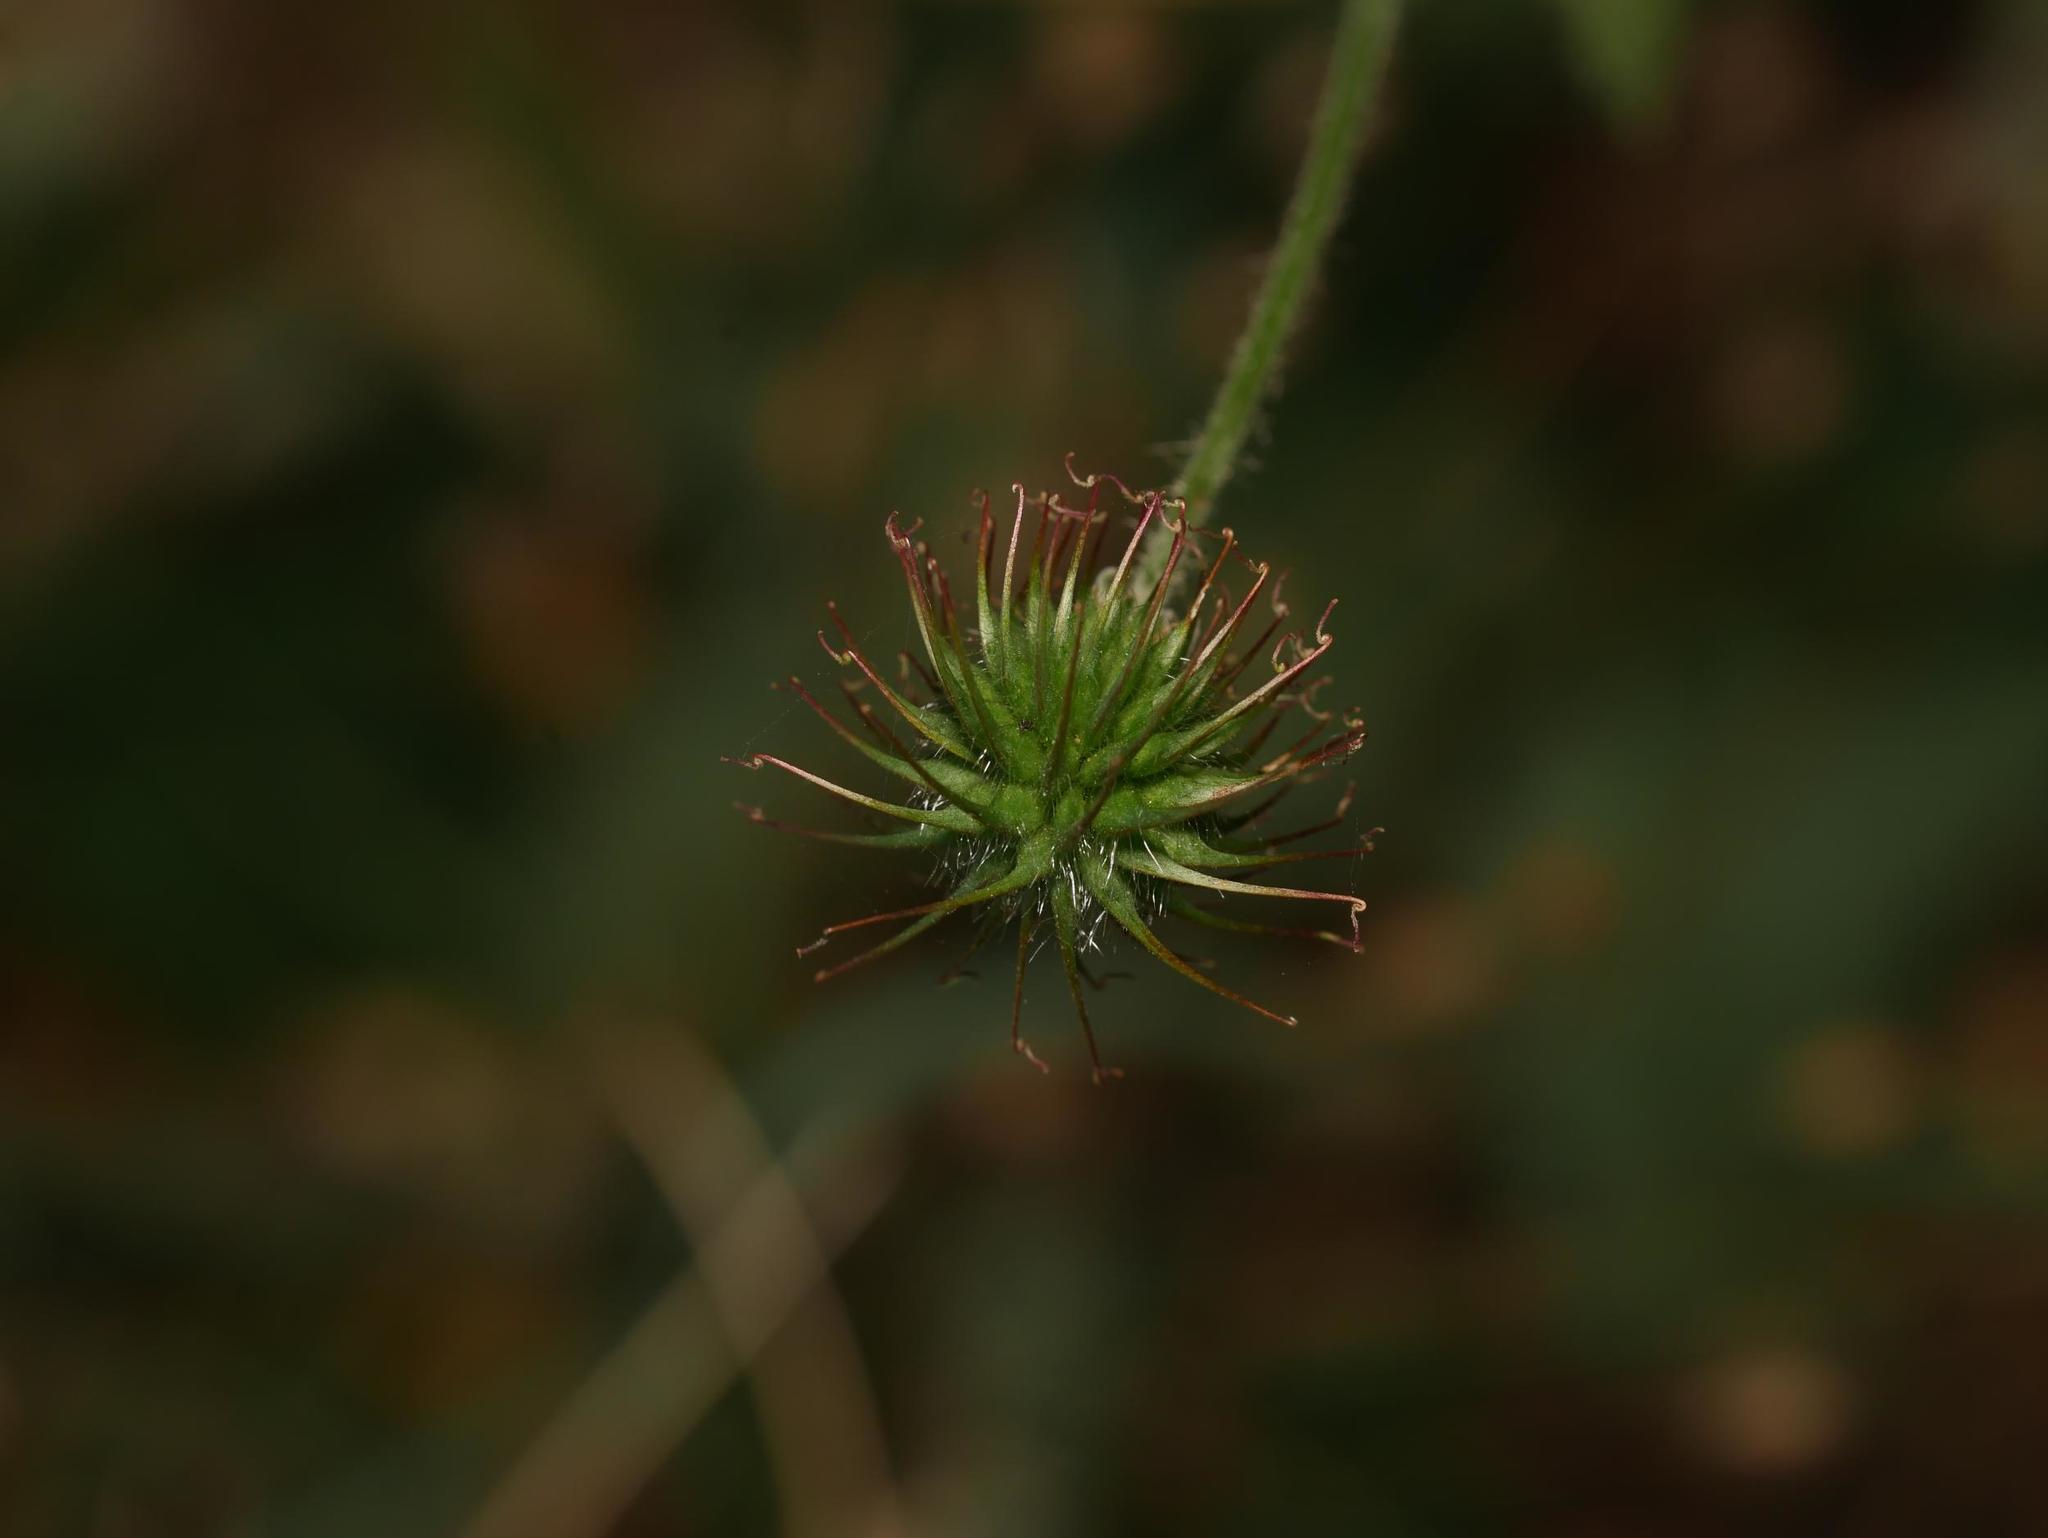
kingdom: Plantae
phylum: Tracheophyta
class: Magnoliopsida
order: Rosales
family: Rosaceae
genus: Geum
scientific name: Geum urbanum
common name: Wood avens
